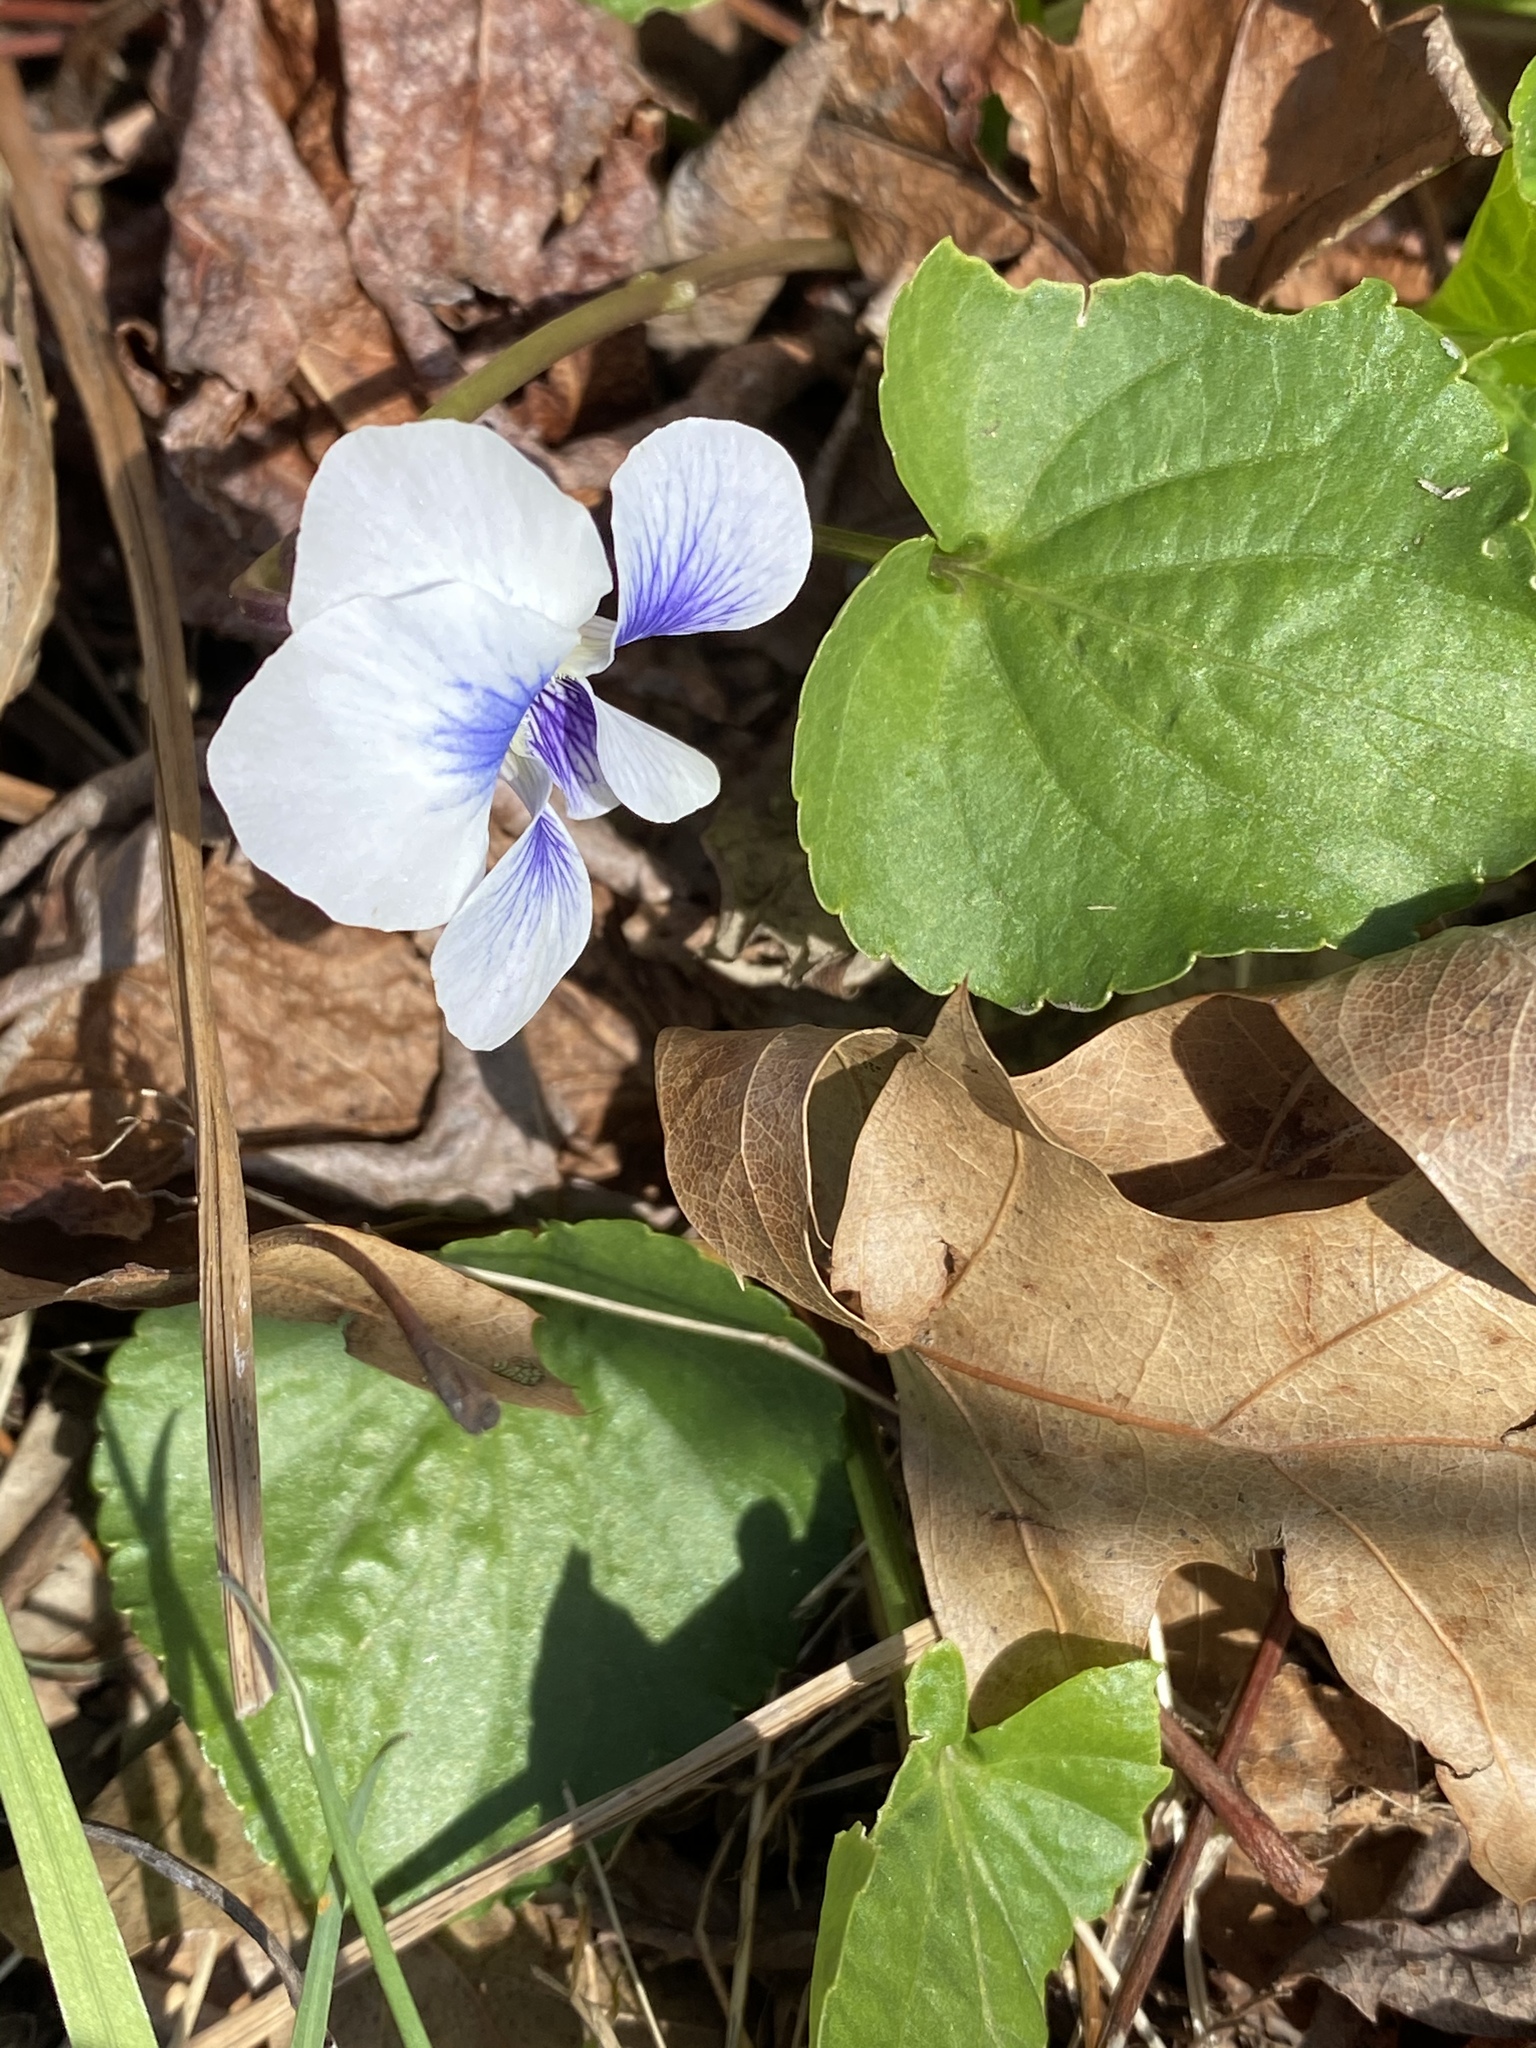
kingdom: Plantae
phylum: Tracheophyta
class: Magnoliopsida
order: Malpighiales
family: Violaceae
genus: Viola
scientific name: Viola sororia
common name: Dooryard violet
